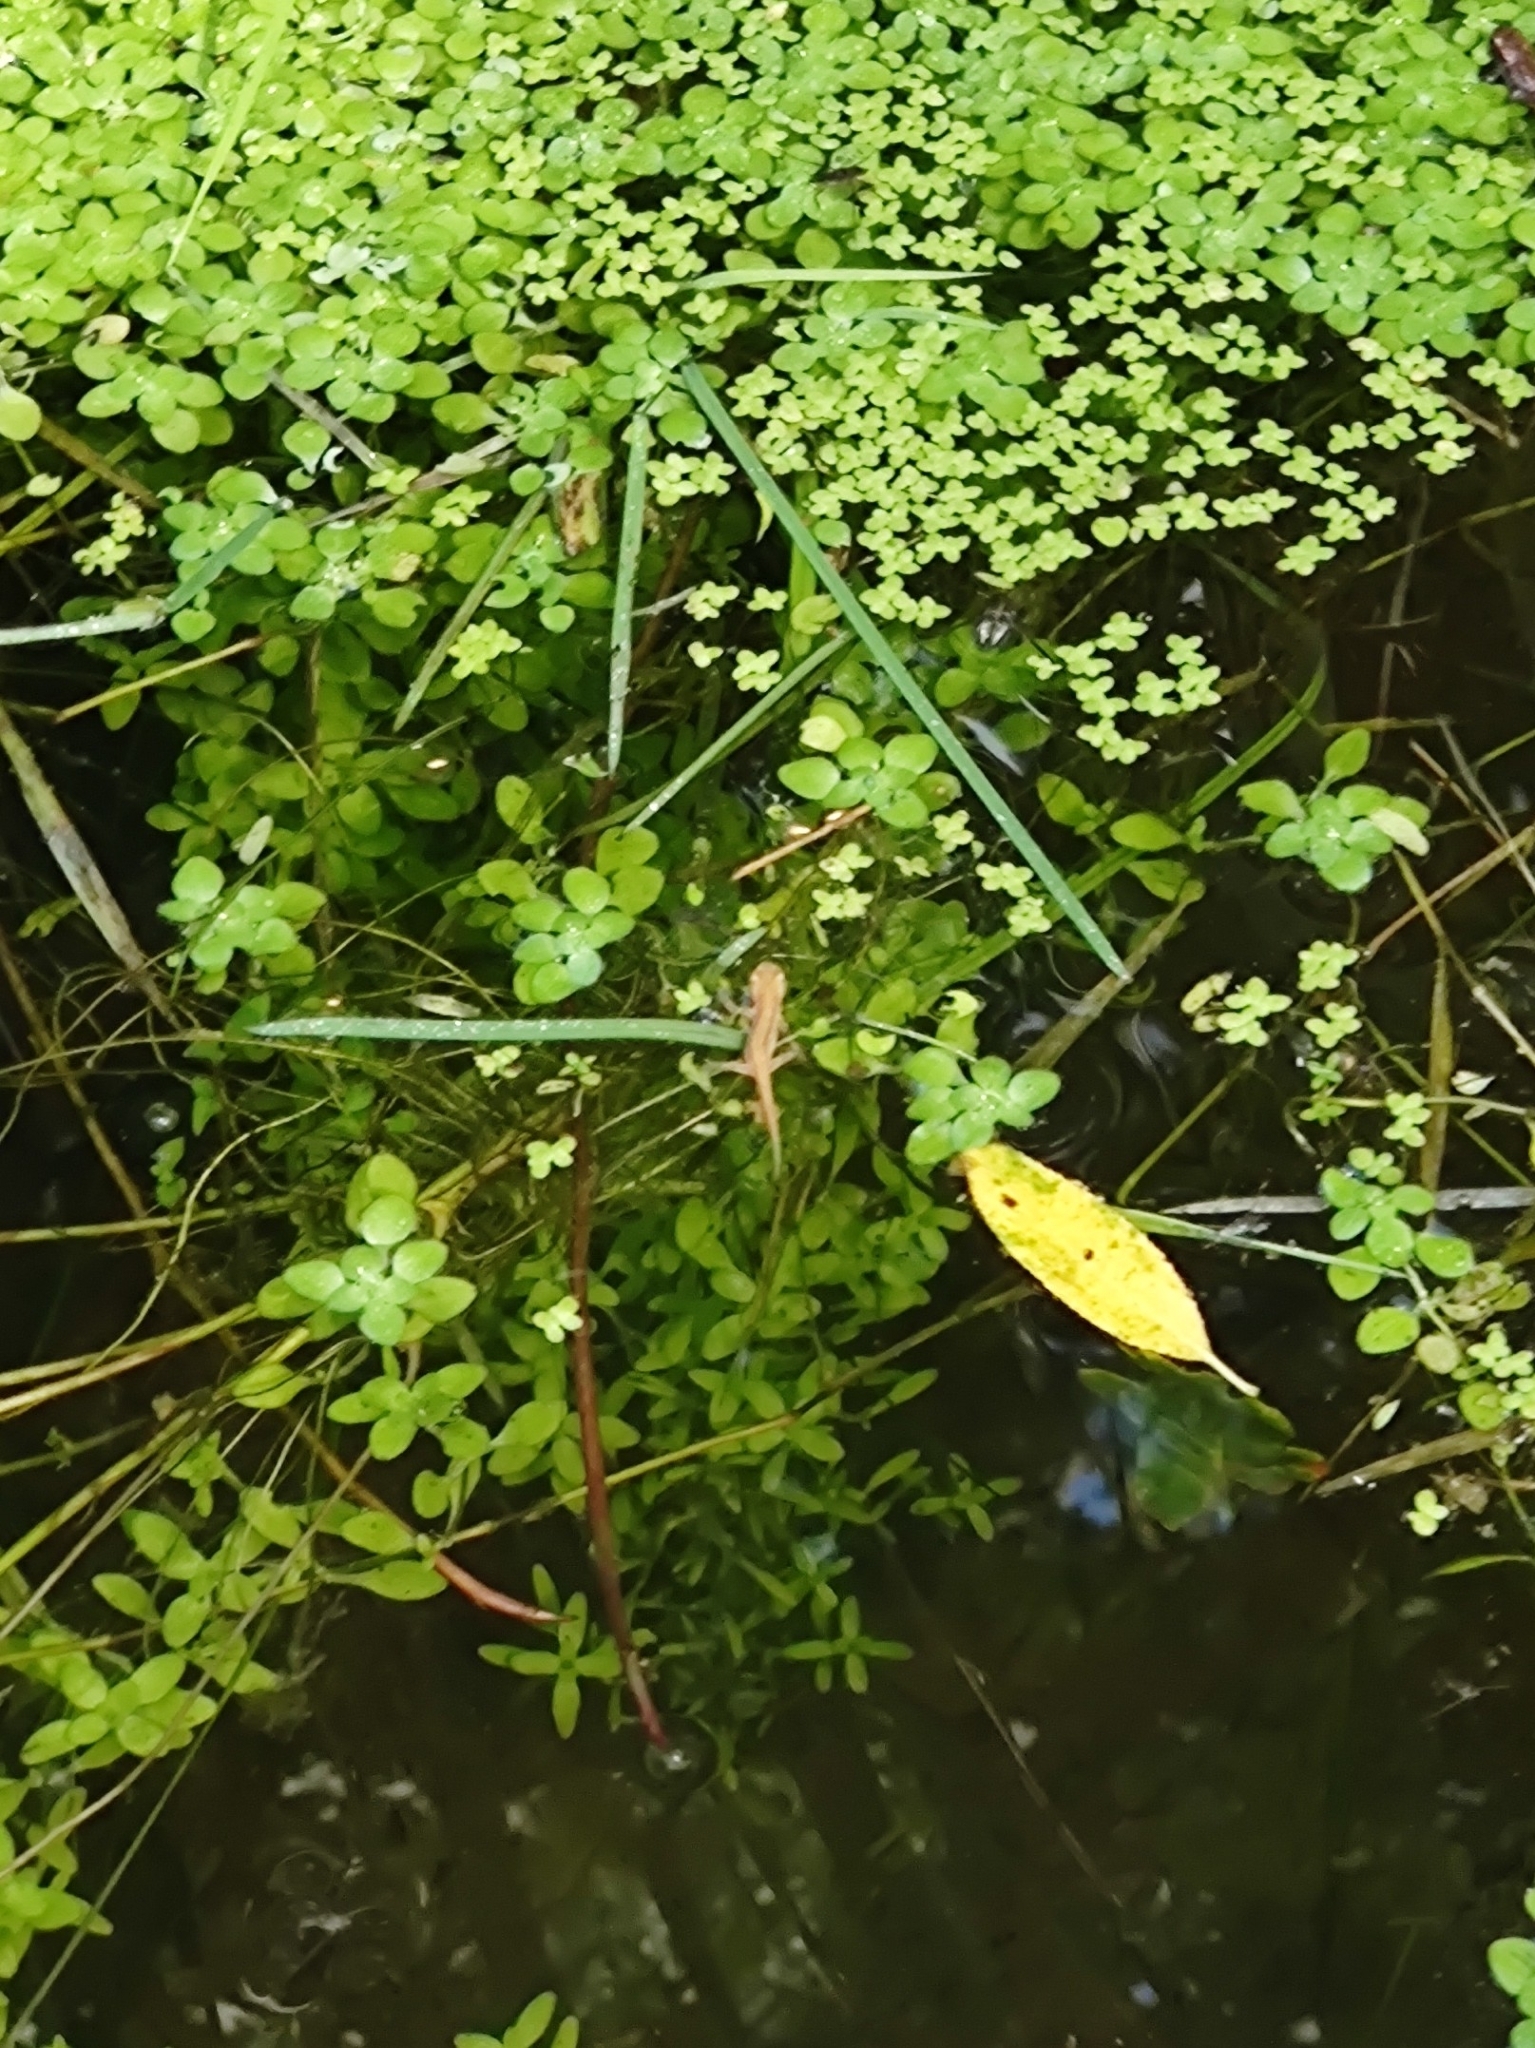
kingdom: Animalia
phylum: Chordata
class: Amphibia
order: Caudata
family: Salamandridae
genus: Lissotriton
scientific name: Lissotriton vulgaris
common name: Smooth newt
